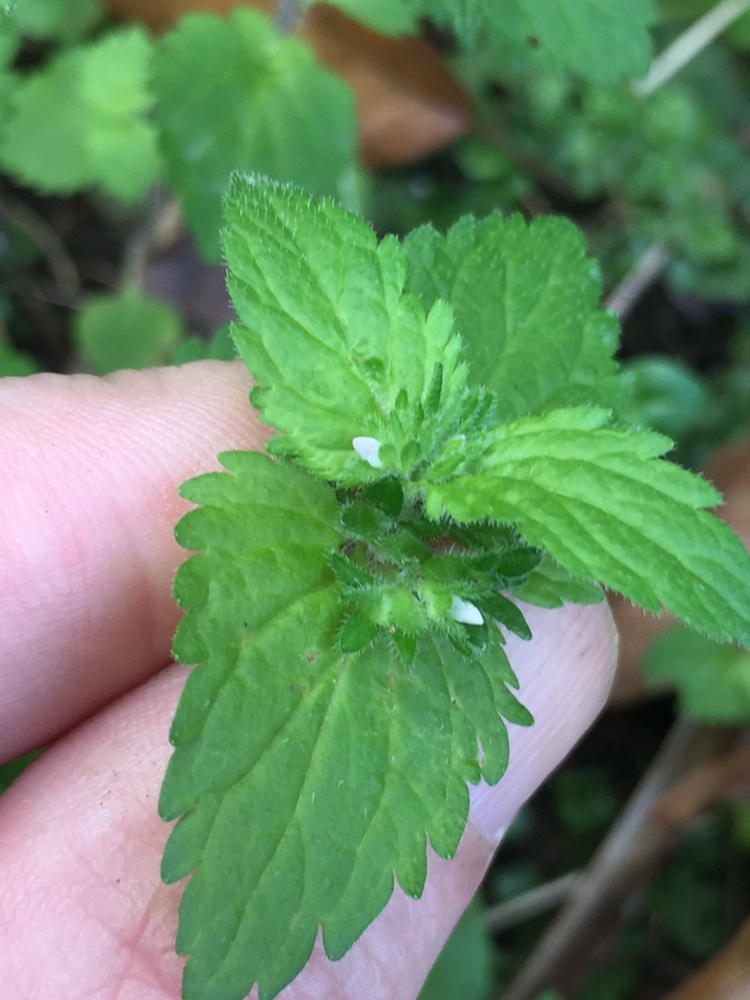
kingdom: Plantae
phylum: Tracheophyta
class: Magnoliopsida
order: Lamiales
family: Plantaginaceae
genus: Veronica
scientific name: Veronica javanica
